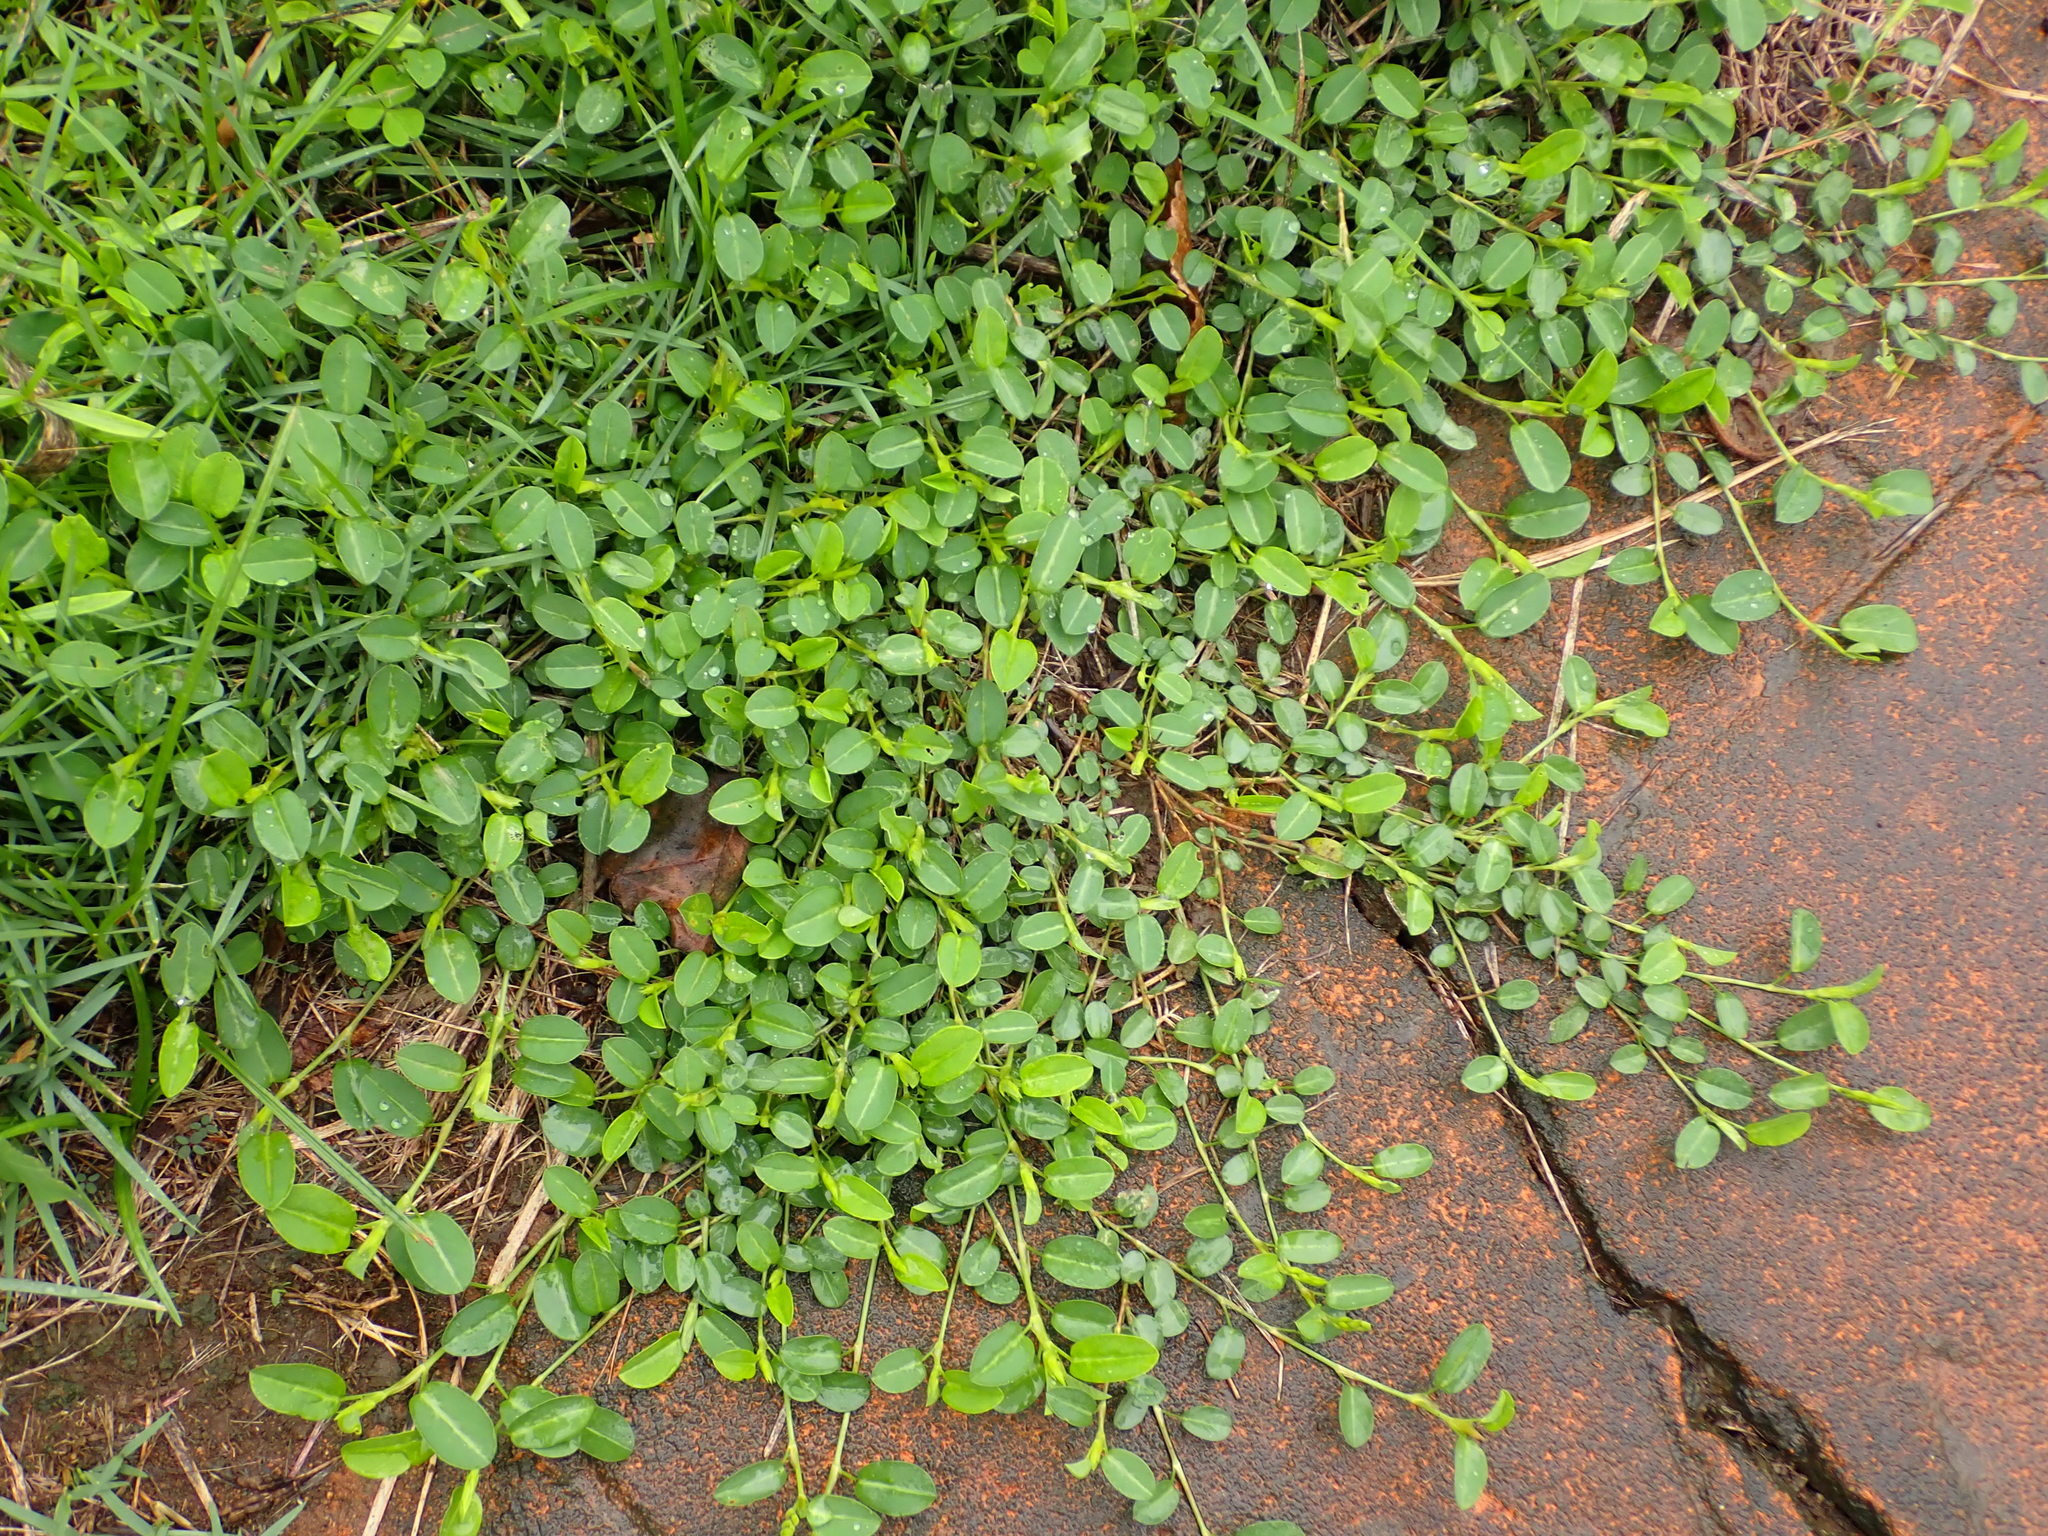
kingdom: Plantae
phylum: Tracheophyta
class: Magnoliopsida
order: Fabales
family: Fabaceae
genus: Alysicarpus
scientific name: Alysicarpus vaginalis
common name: White moneywort
